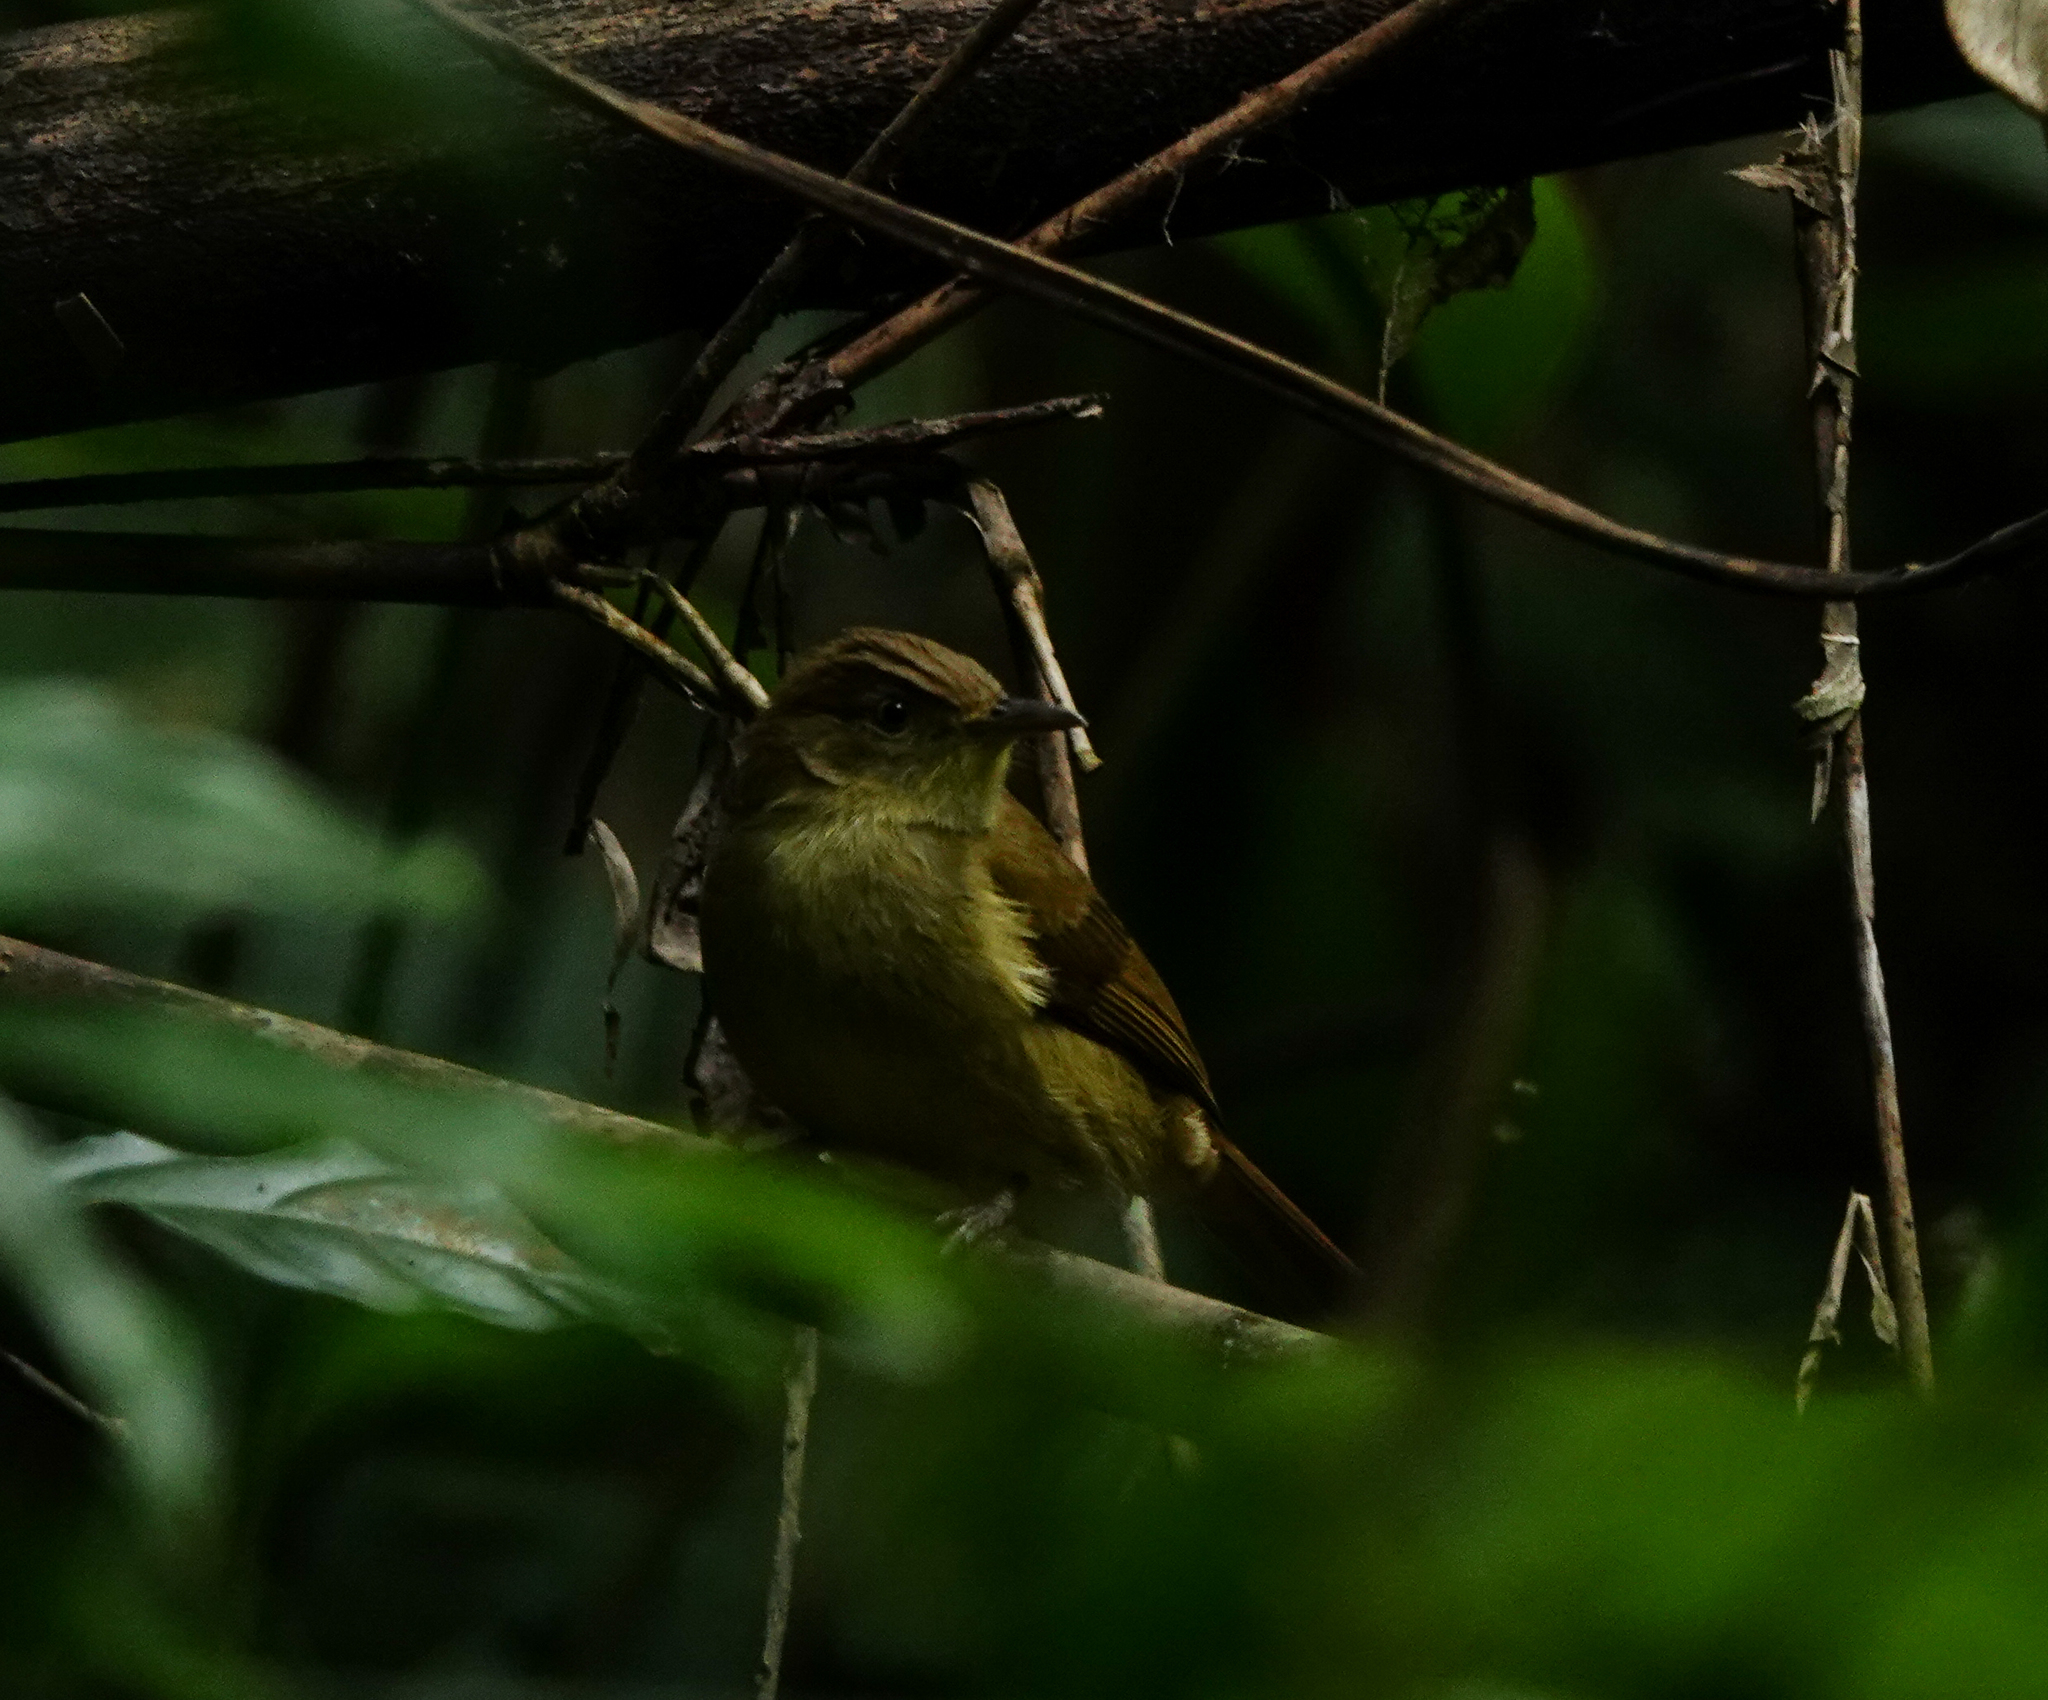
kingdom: Animalia
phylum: Chordata
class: Aves
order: Passeriformes
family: Pycnonotidae
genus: Iole
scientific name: Iole virescens
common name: Olive bulbul
